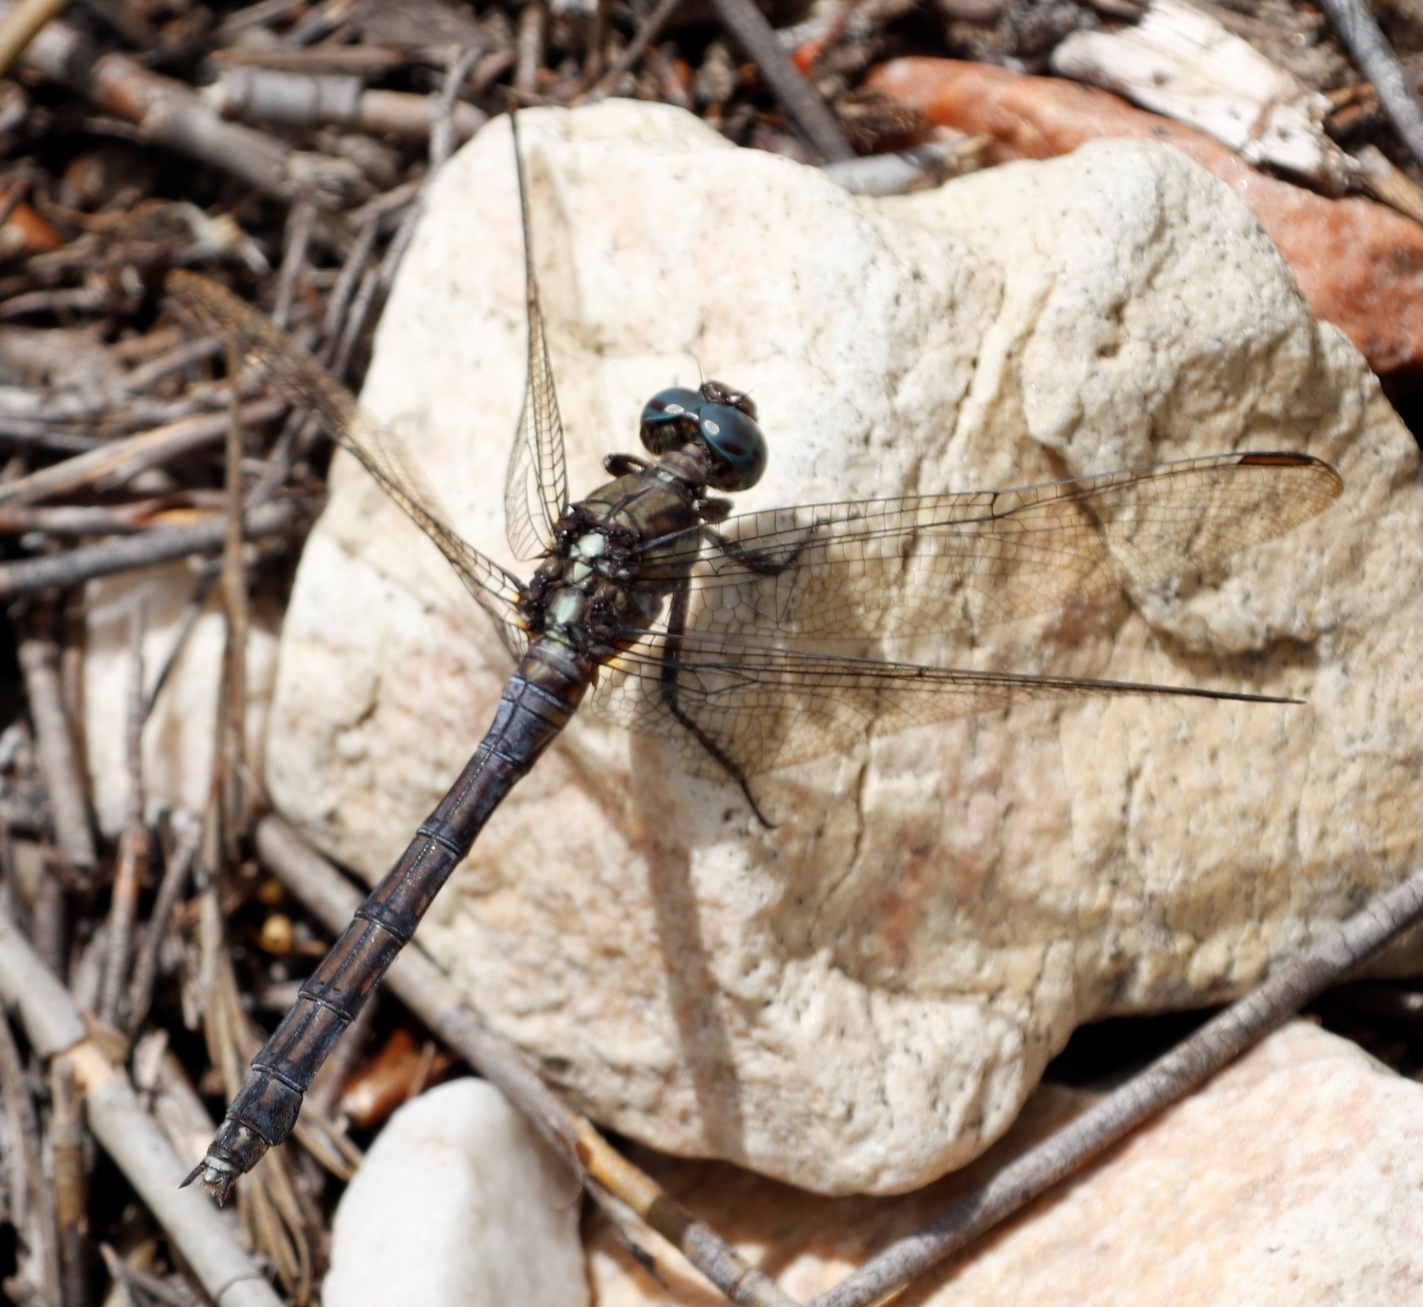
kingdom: Animalia
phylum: Arthropoda
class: Insecta
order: Odonata
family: Libellulidae
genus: Orthetrum
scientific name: Orthetrum julia
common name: Julia skimmer
